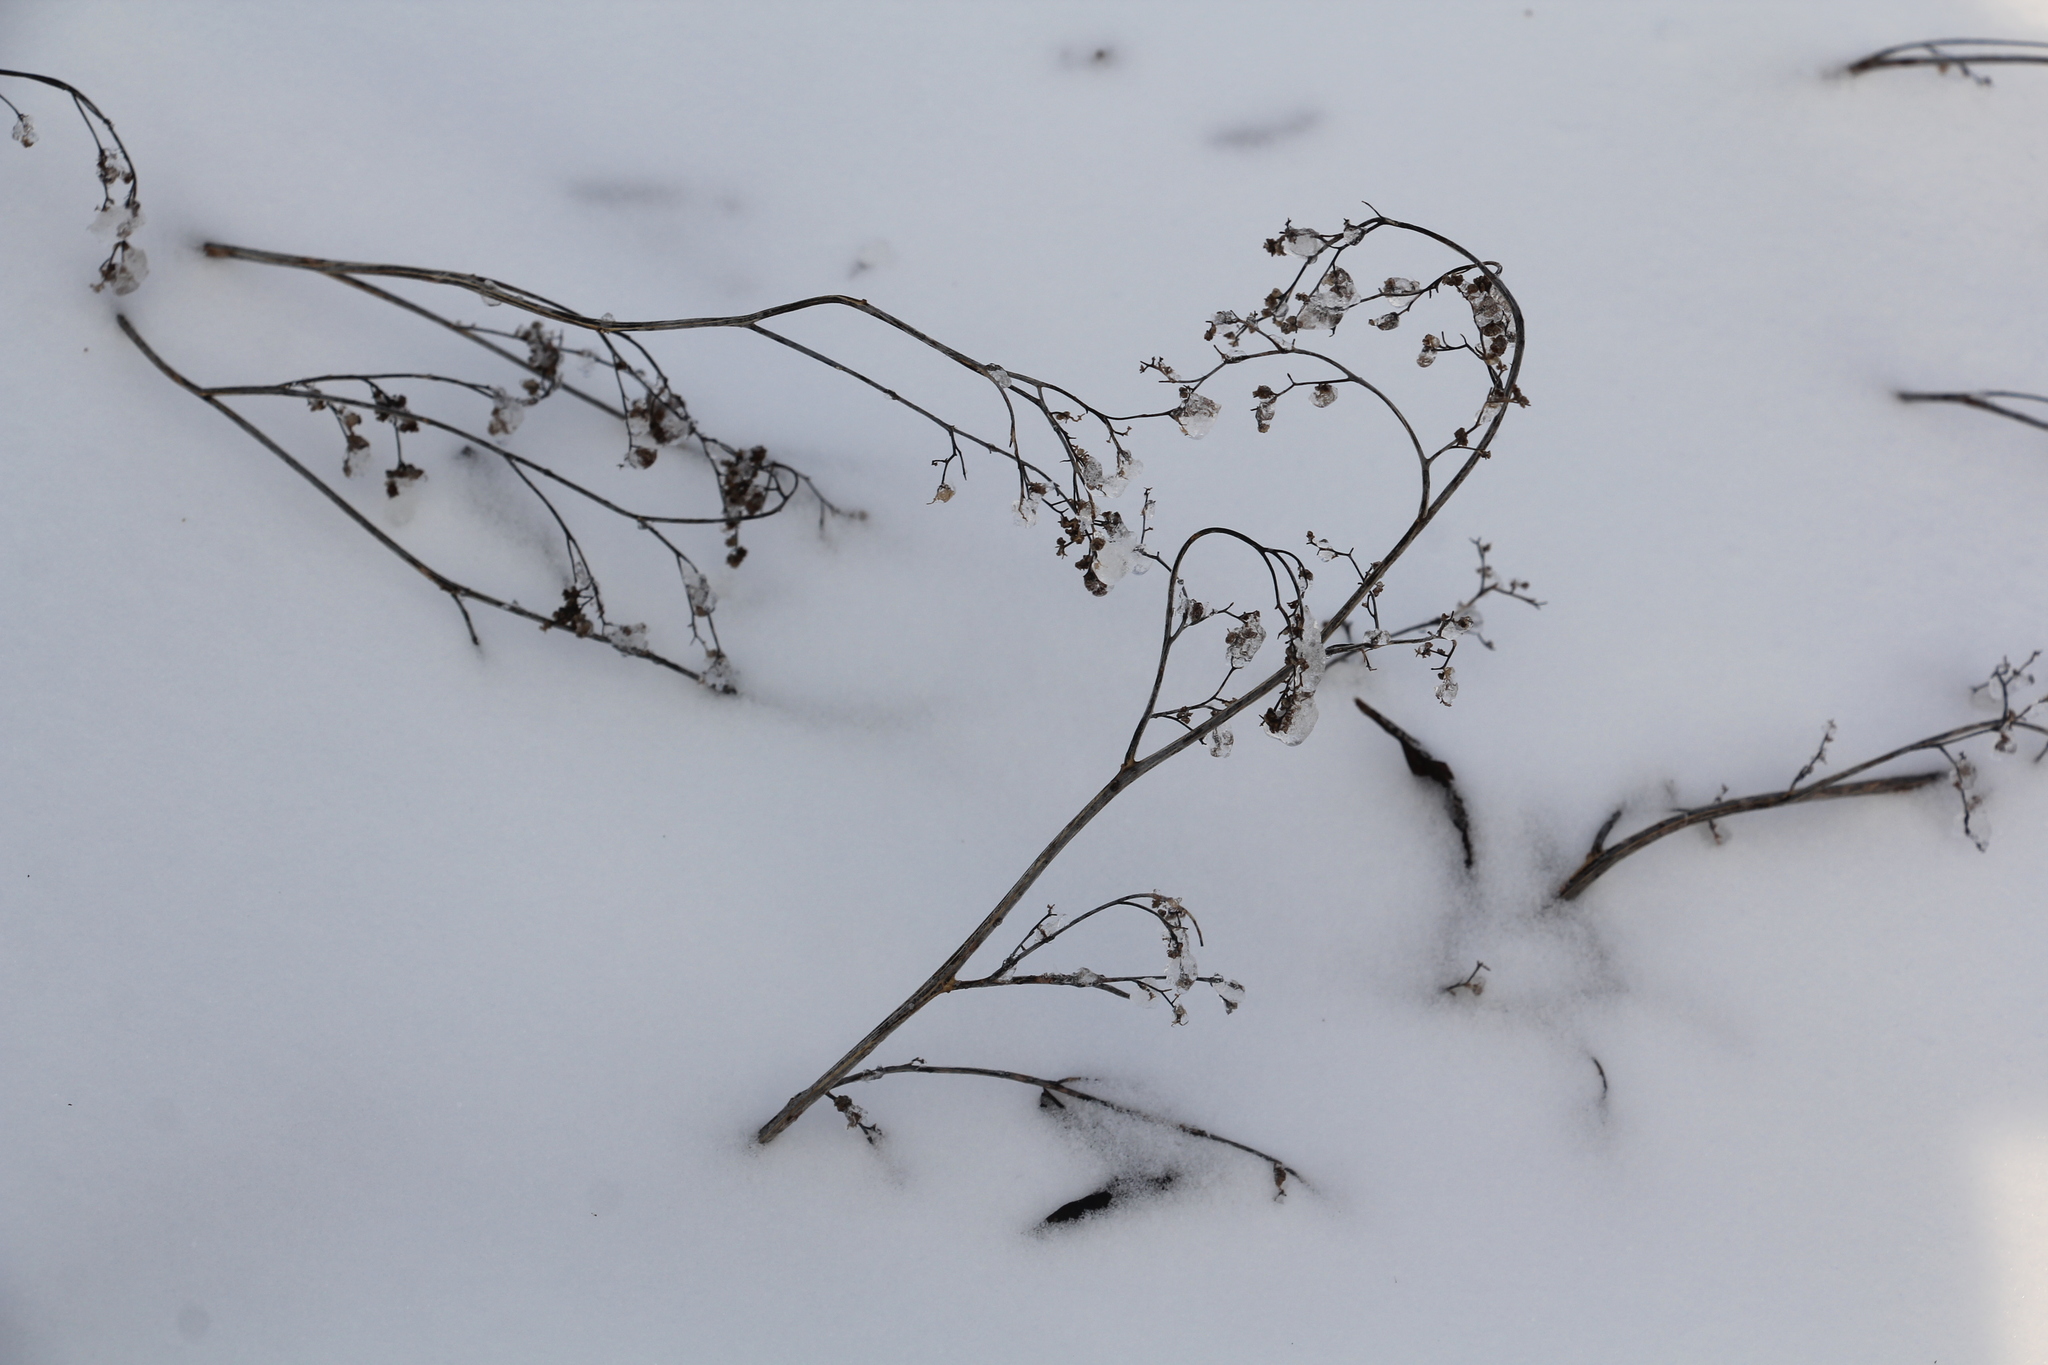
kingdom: Plantae
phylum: Tracheophyta
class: Magnoliopsida
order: Caryophyllales
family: Amaranthaceae
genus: Chenopodium
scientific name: Chenopodium album
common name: Fat-hen
